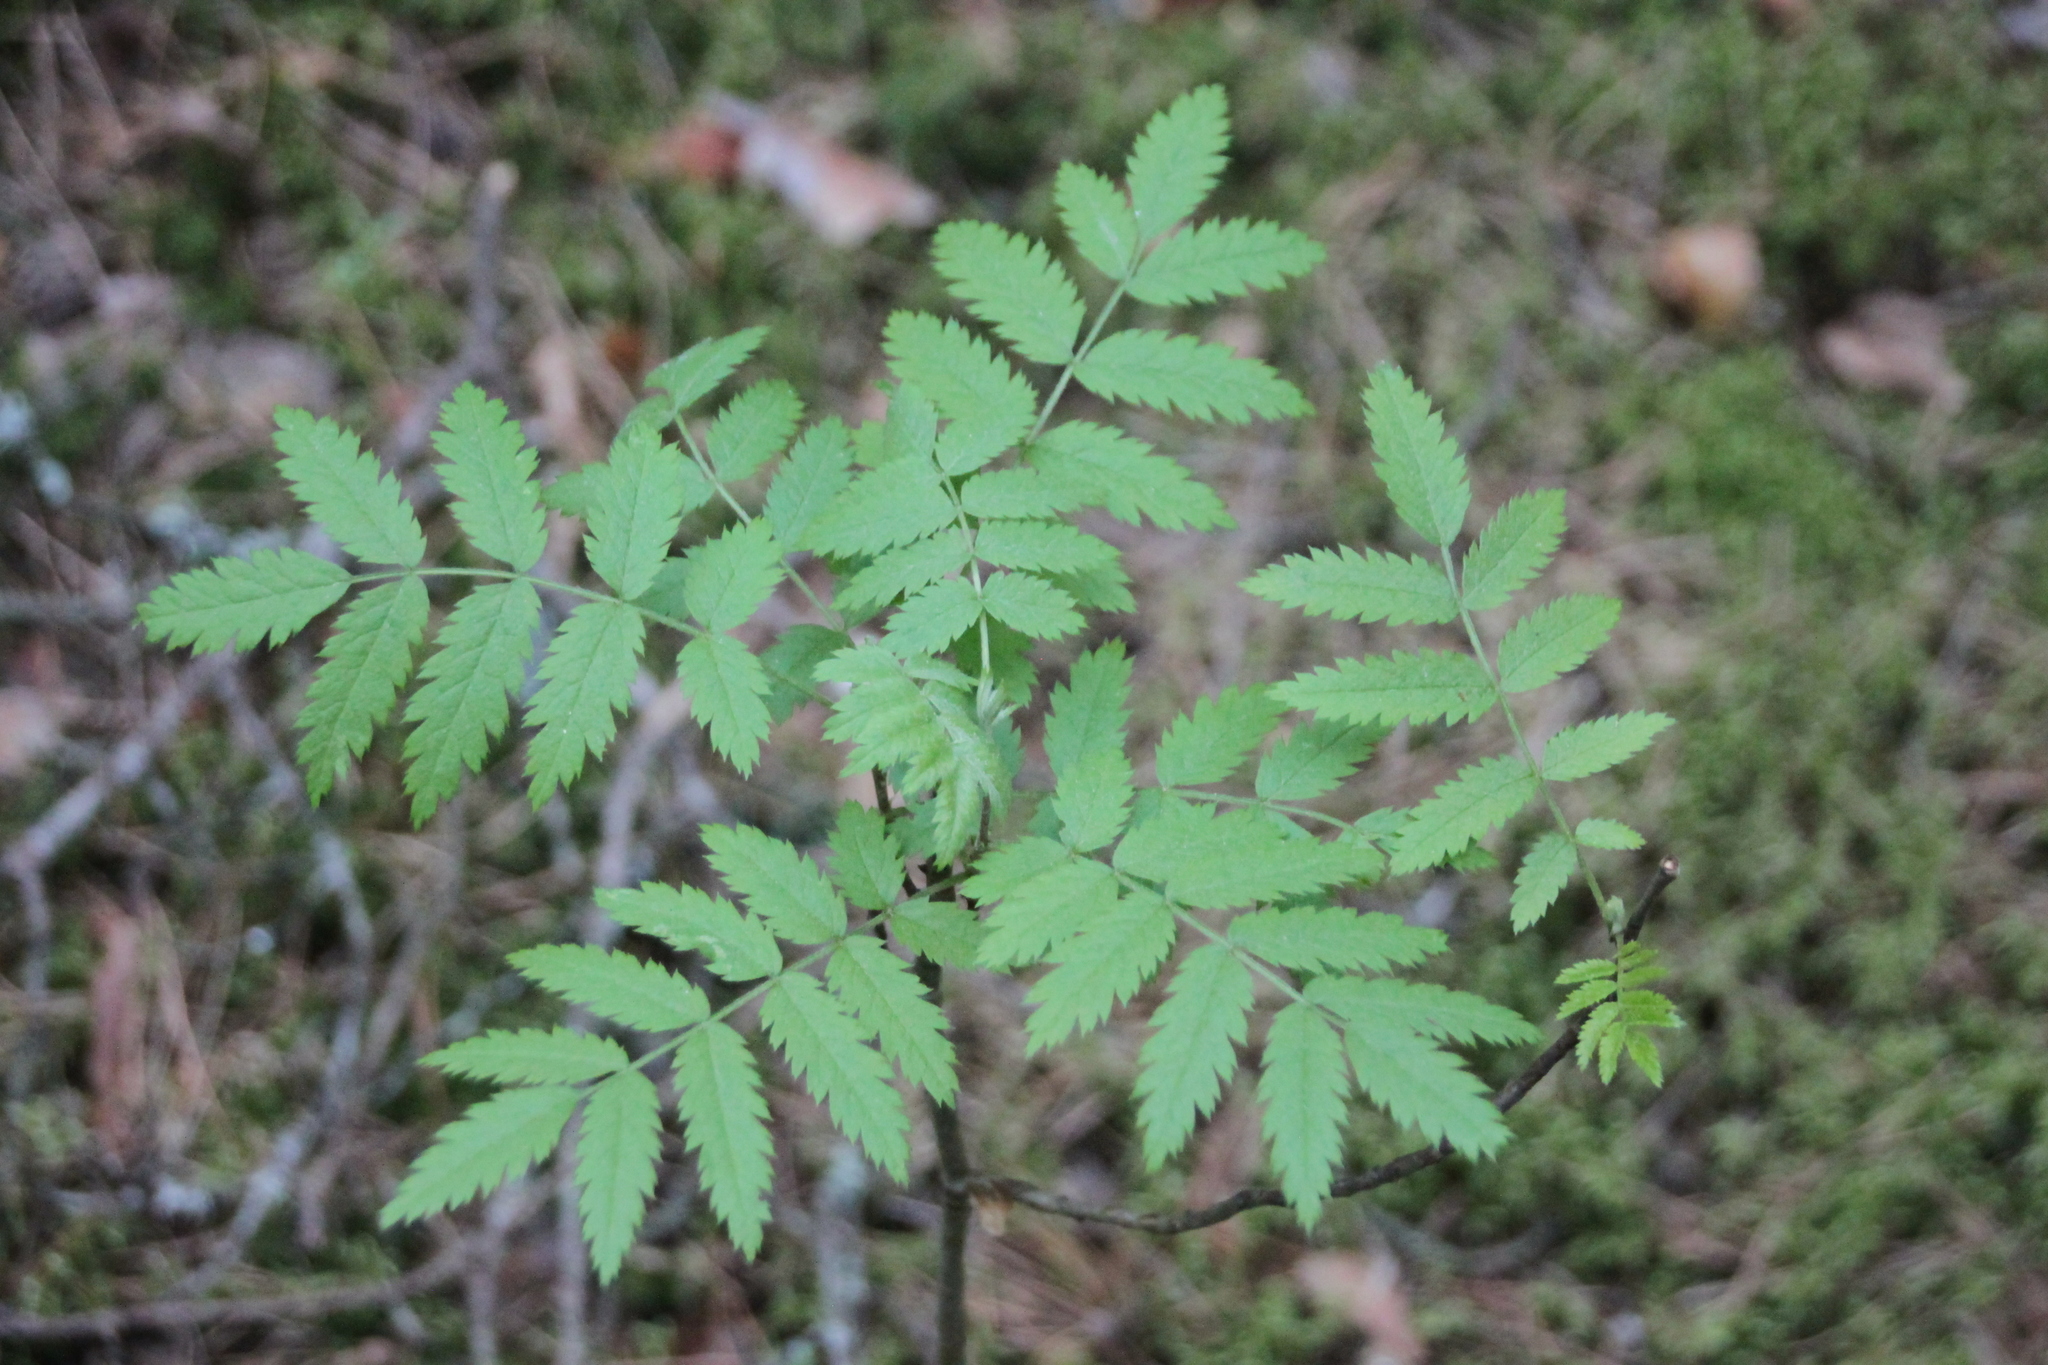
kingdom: Plantae
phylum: Tracheophyta
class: Magnoliopsida
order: Rosales
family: Rosaceae
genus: Sorbus
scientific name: Sorbus aucuparia
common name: Rowan
